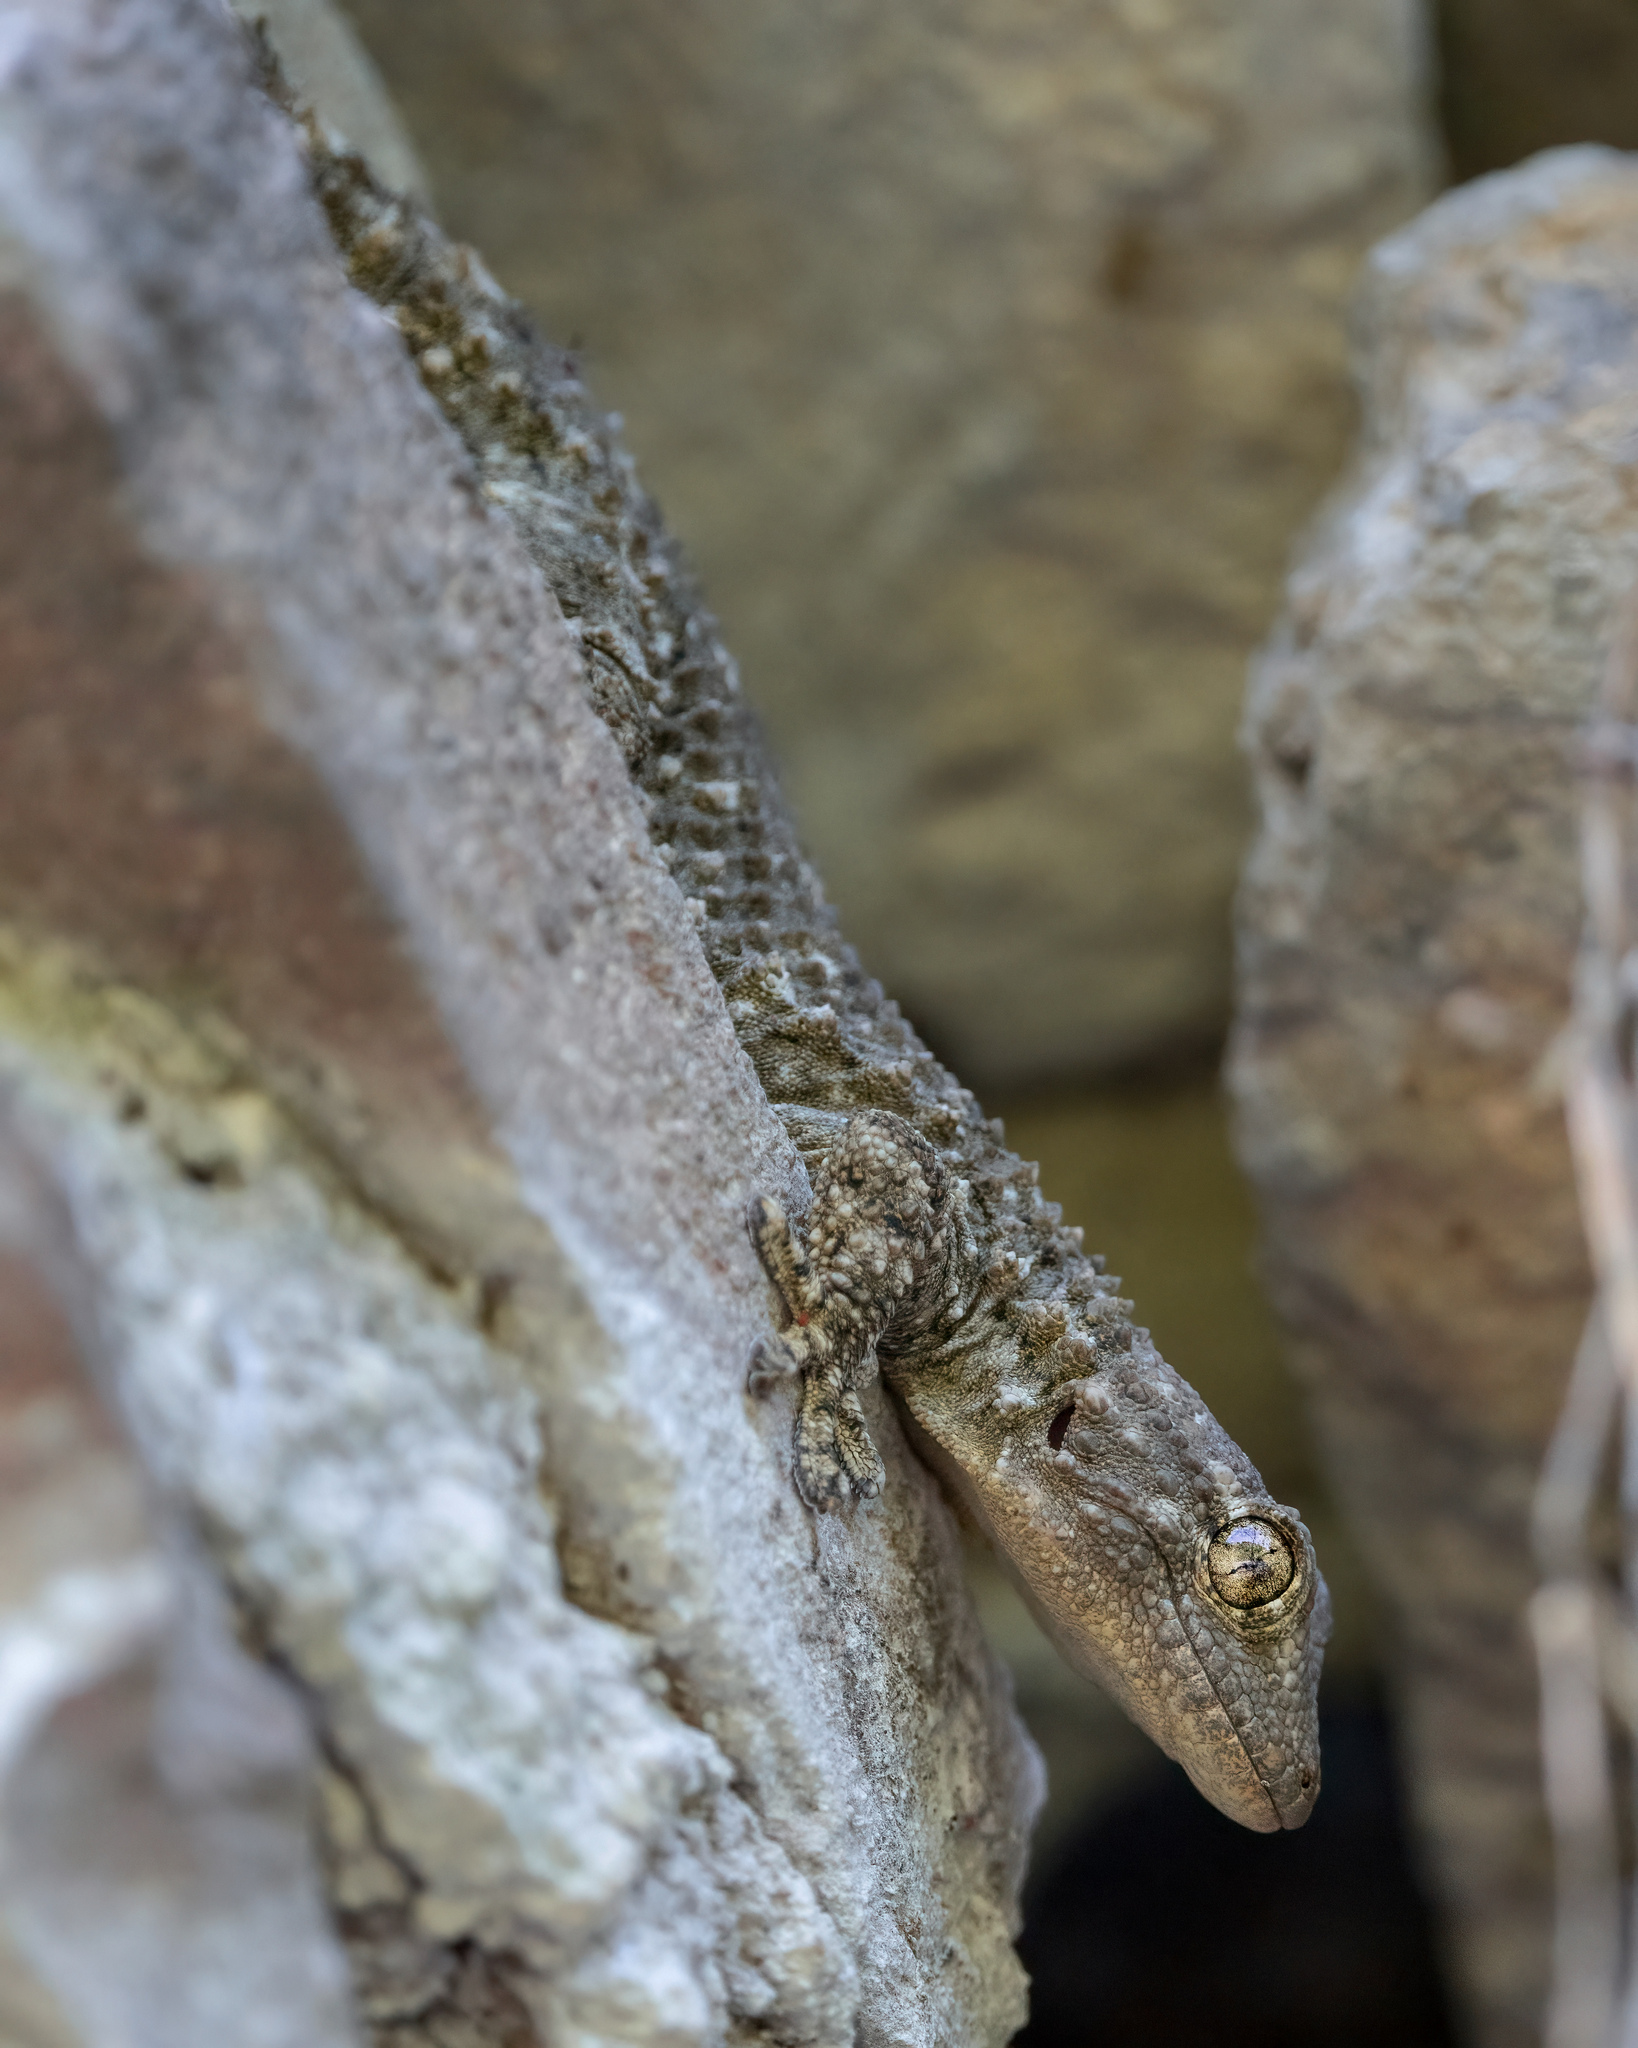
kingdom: Animalia
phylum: Chordata
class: Squamata
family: Phyllodactylidae
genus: Tarentola
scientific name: Tarentola mauritanica
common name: Moorish gecko
